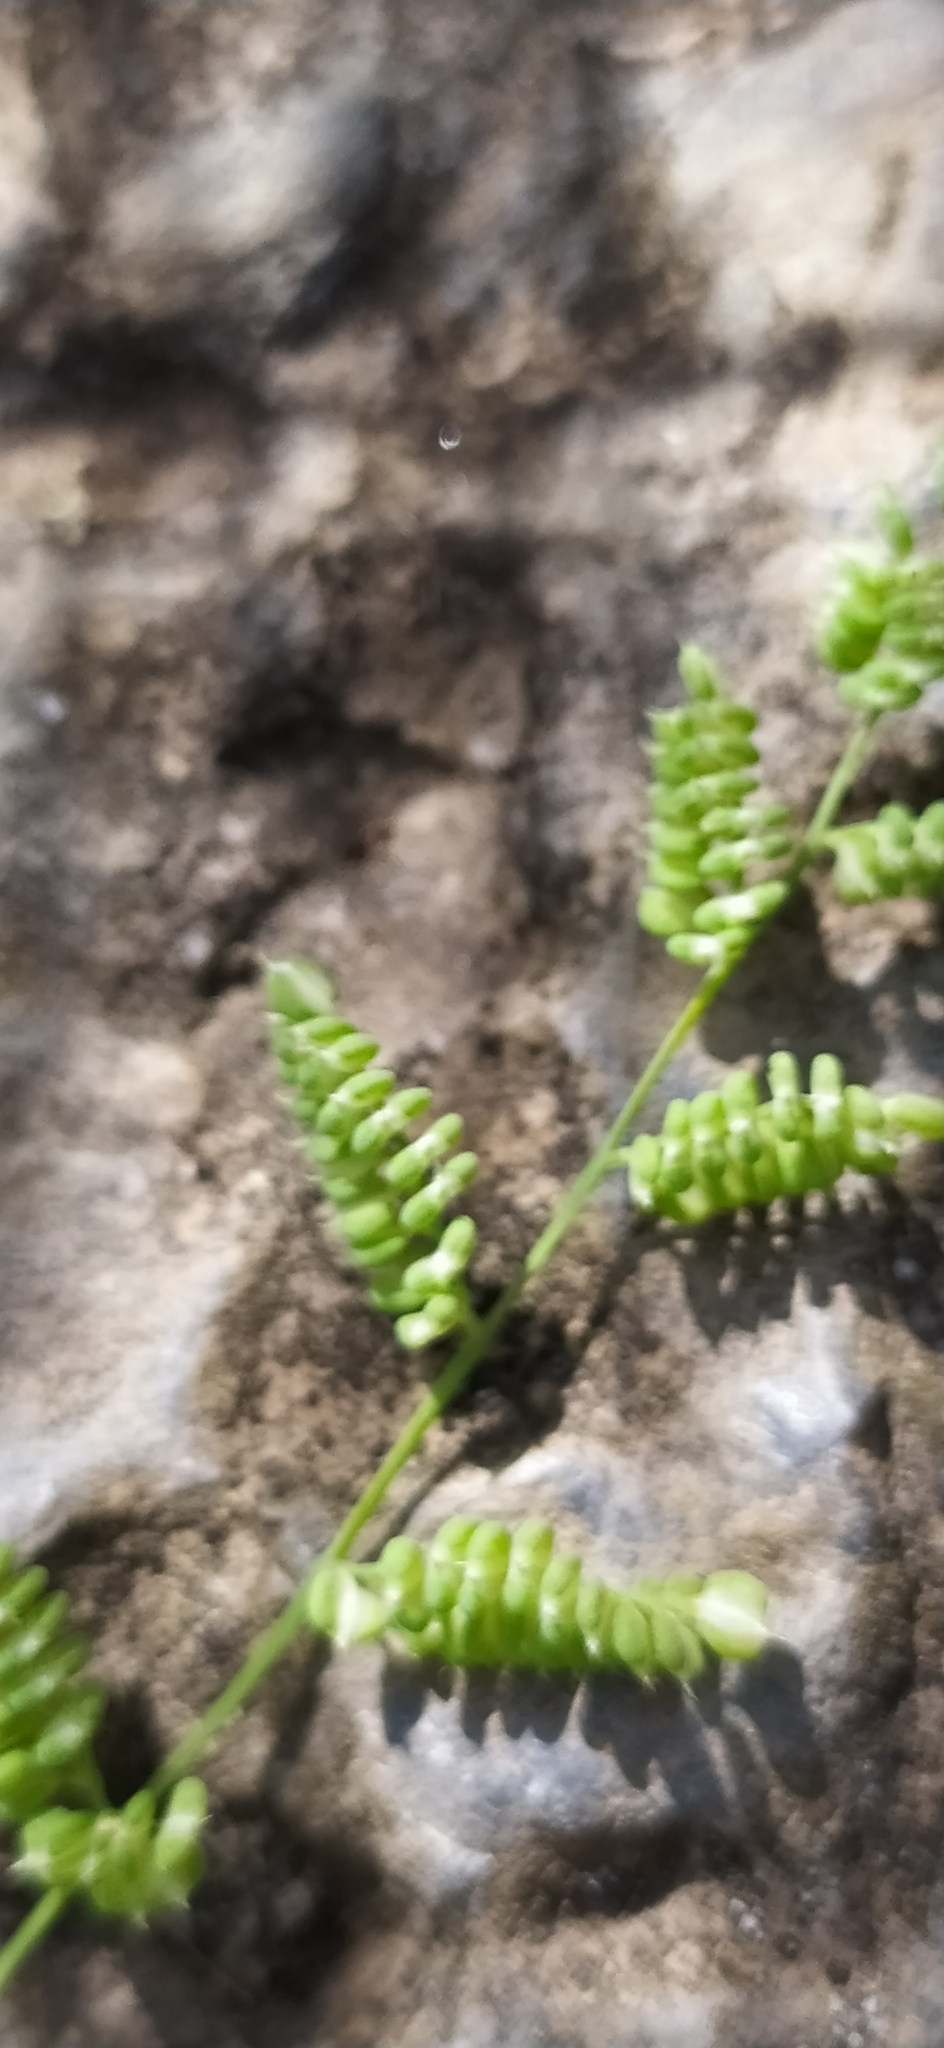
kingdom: Plantae
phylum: Tracheophyta
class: Liliopsida
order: Poales
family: Poaceae
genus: Beckmannia
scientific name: Beckmannia syzigachne
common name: American slough-grass
